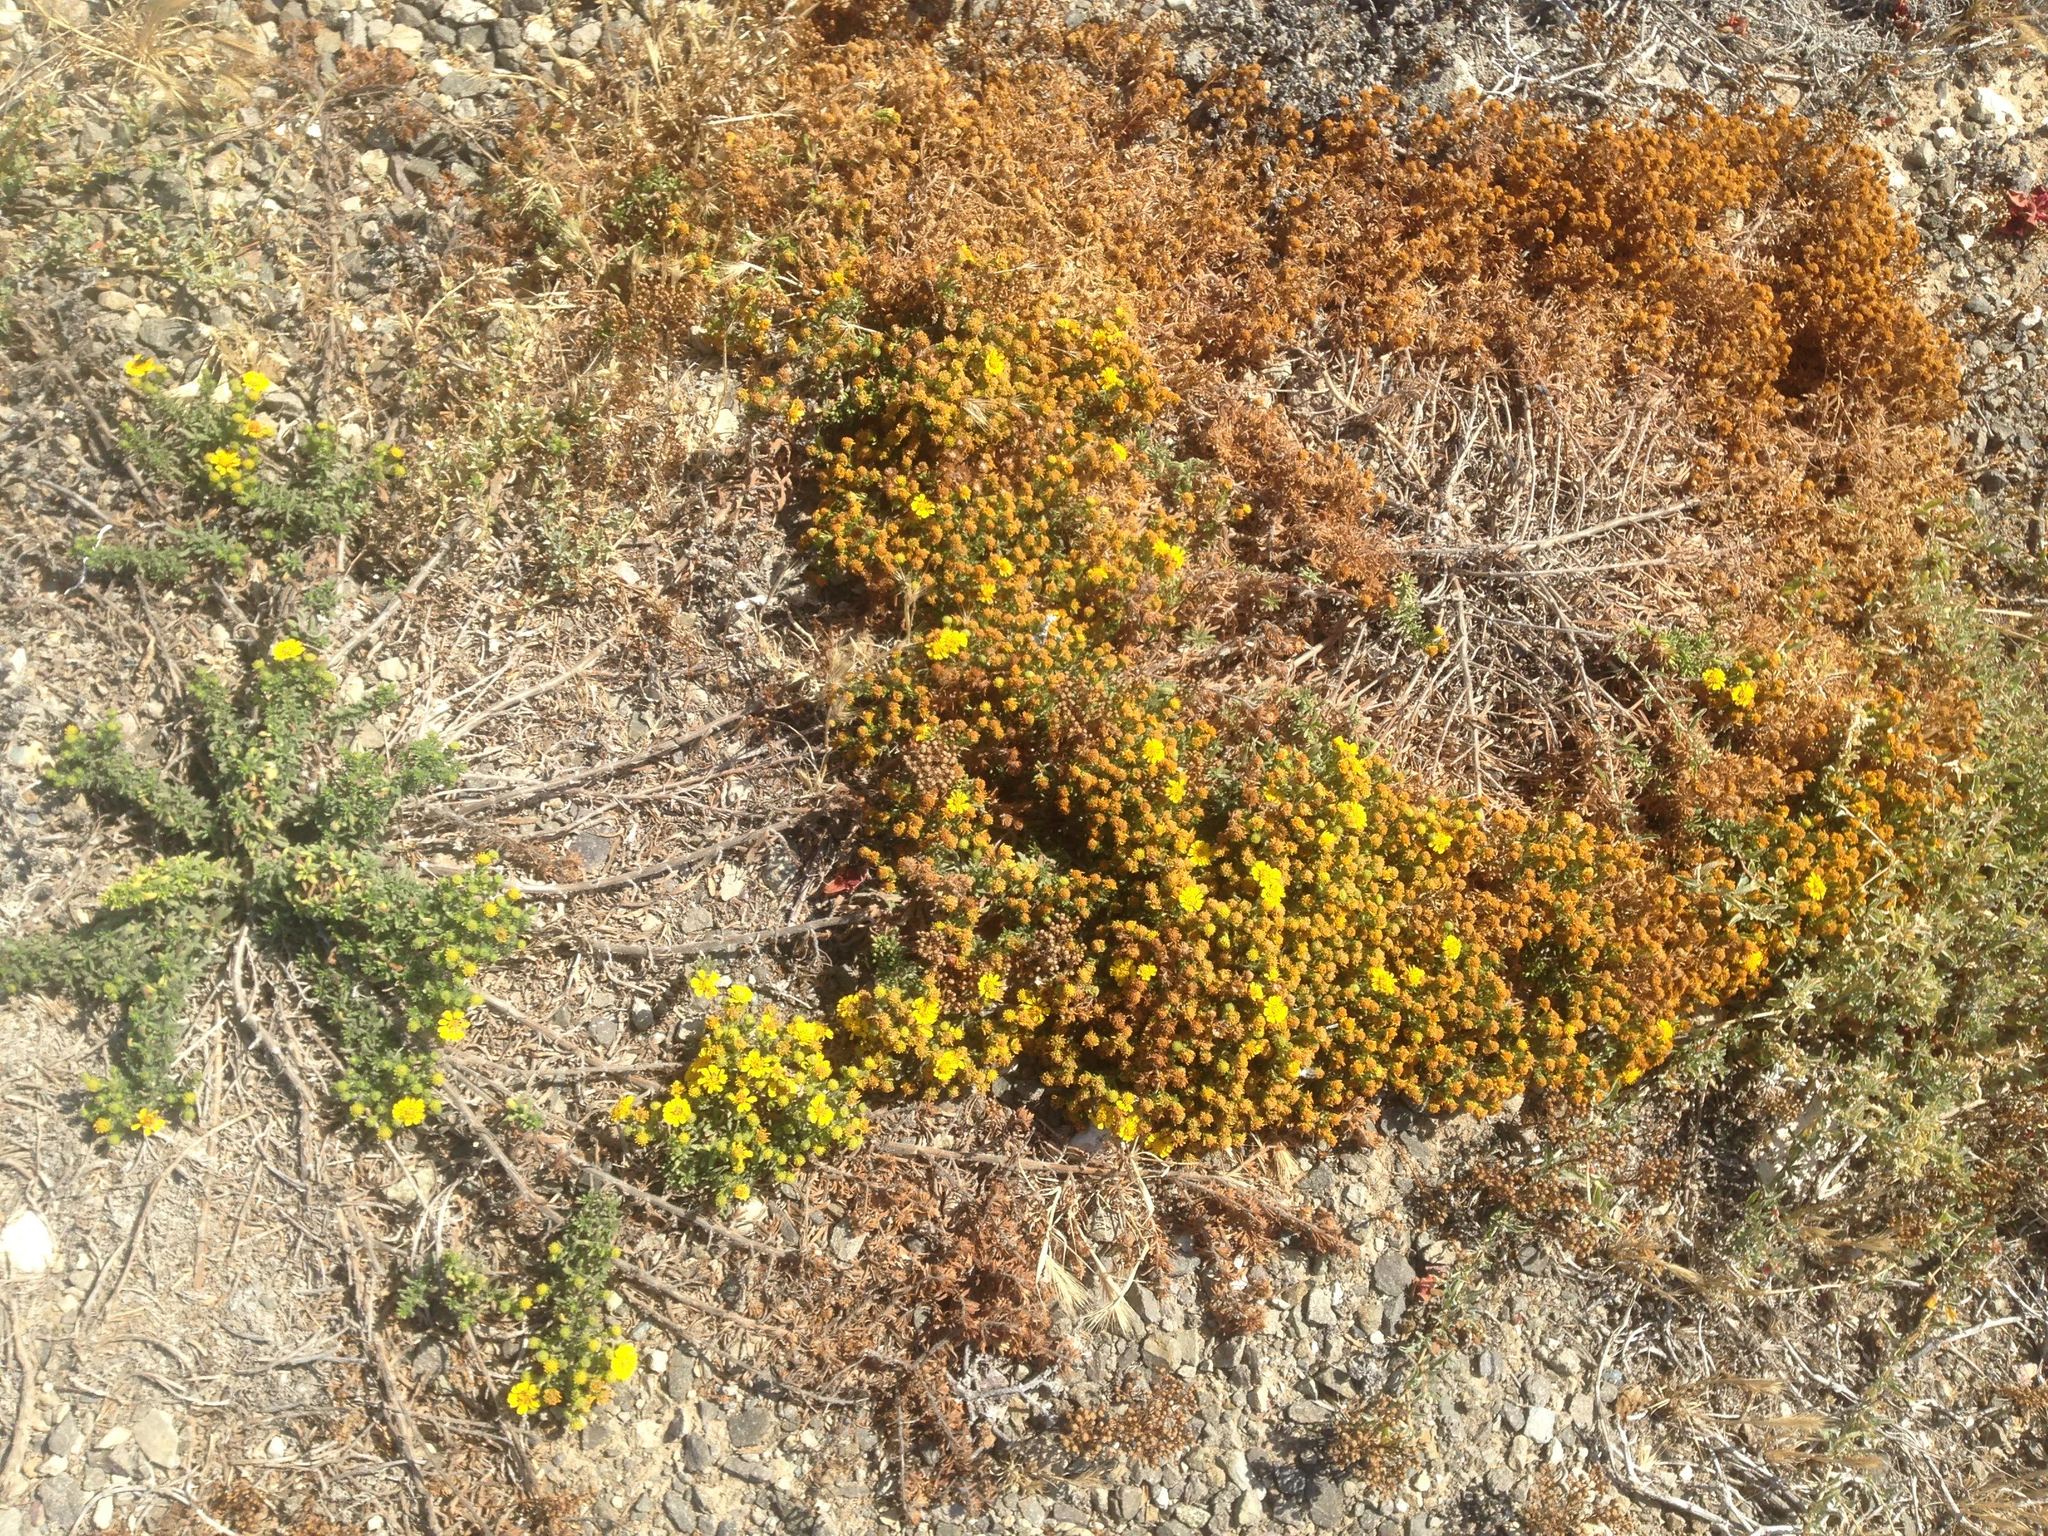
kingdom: Plantae
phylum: Tracheophyta
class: Magnoliopsida
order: Asterales
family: Asteraceae
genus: Deinandra
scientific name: Deinandra clementina
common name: Island tarplant
